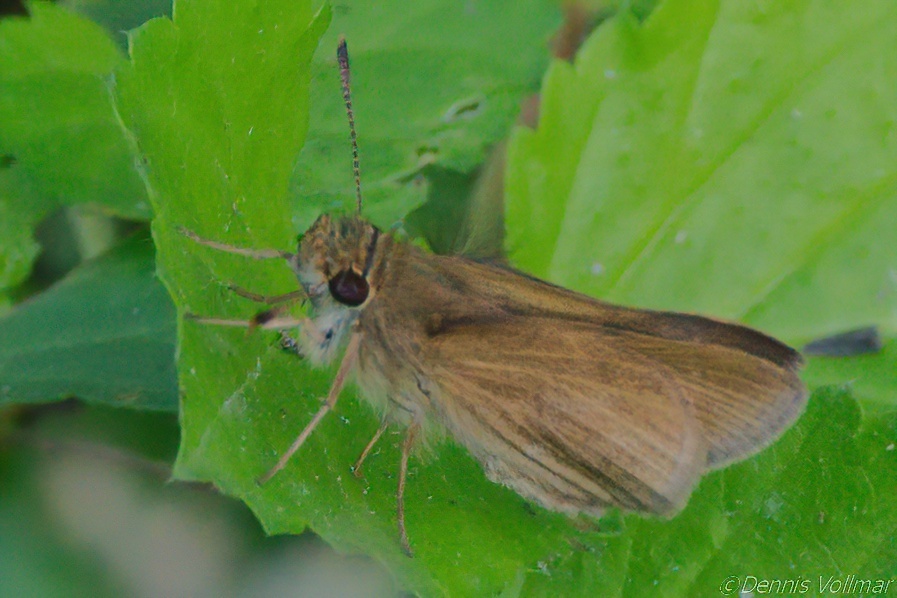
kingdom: Animalia
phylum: Arthropoda
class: Insecta
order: Lepidoptera
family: Hesperiidae
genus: Nastra
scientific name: Nastra julia
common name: Julia's skipper
